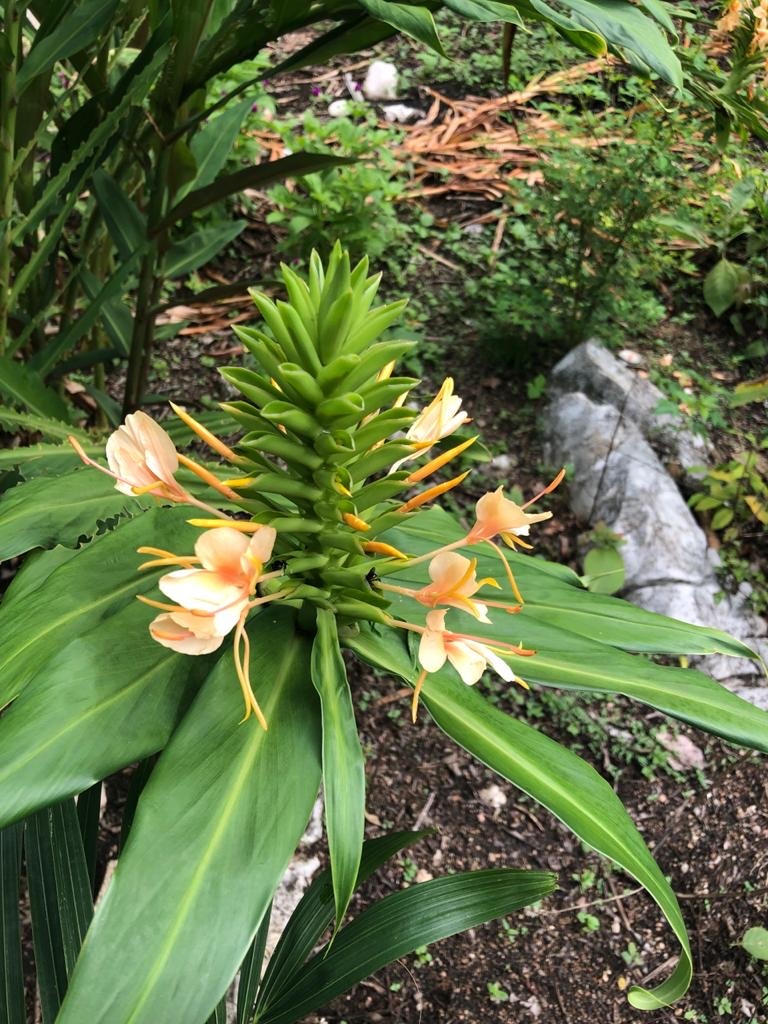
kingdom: Plantae
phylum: Tracheophyta
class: Liliopsida
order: Zingiberales
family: Zingiberaceae
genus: Hedychium
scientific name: Hedychium gardnerianum
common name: Himalayan ginger
